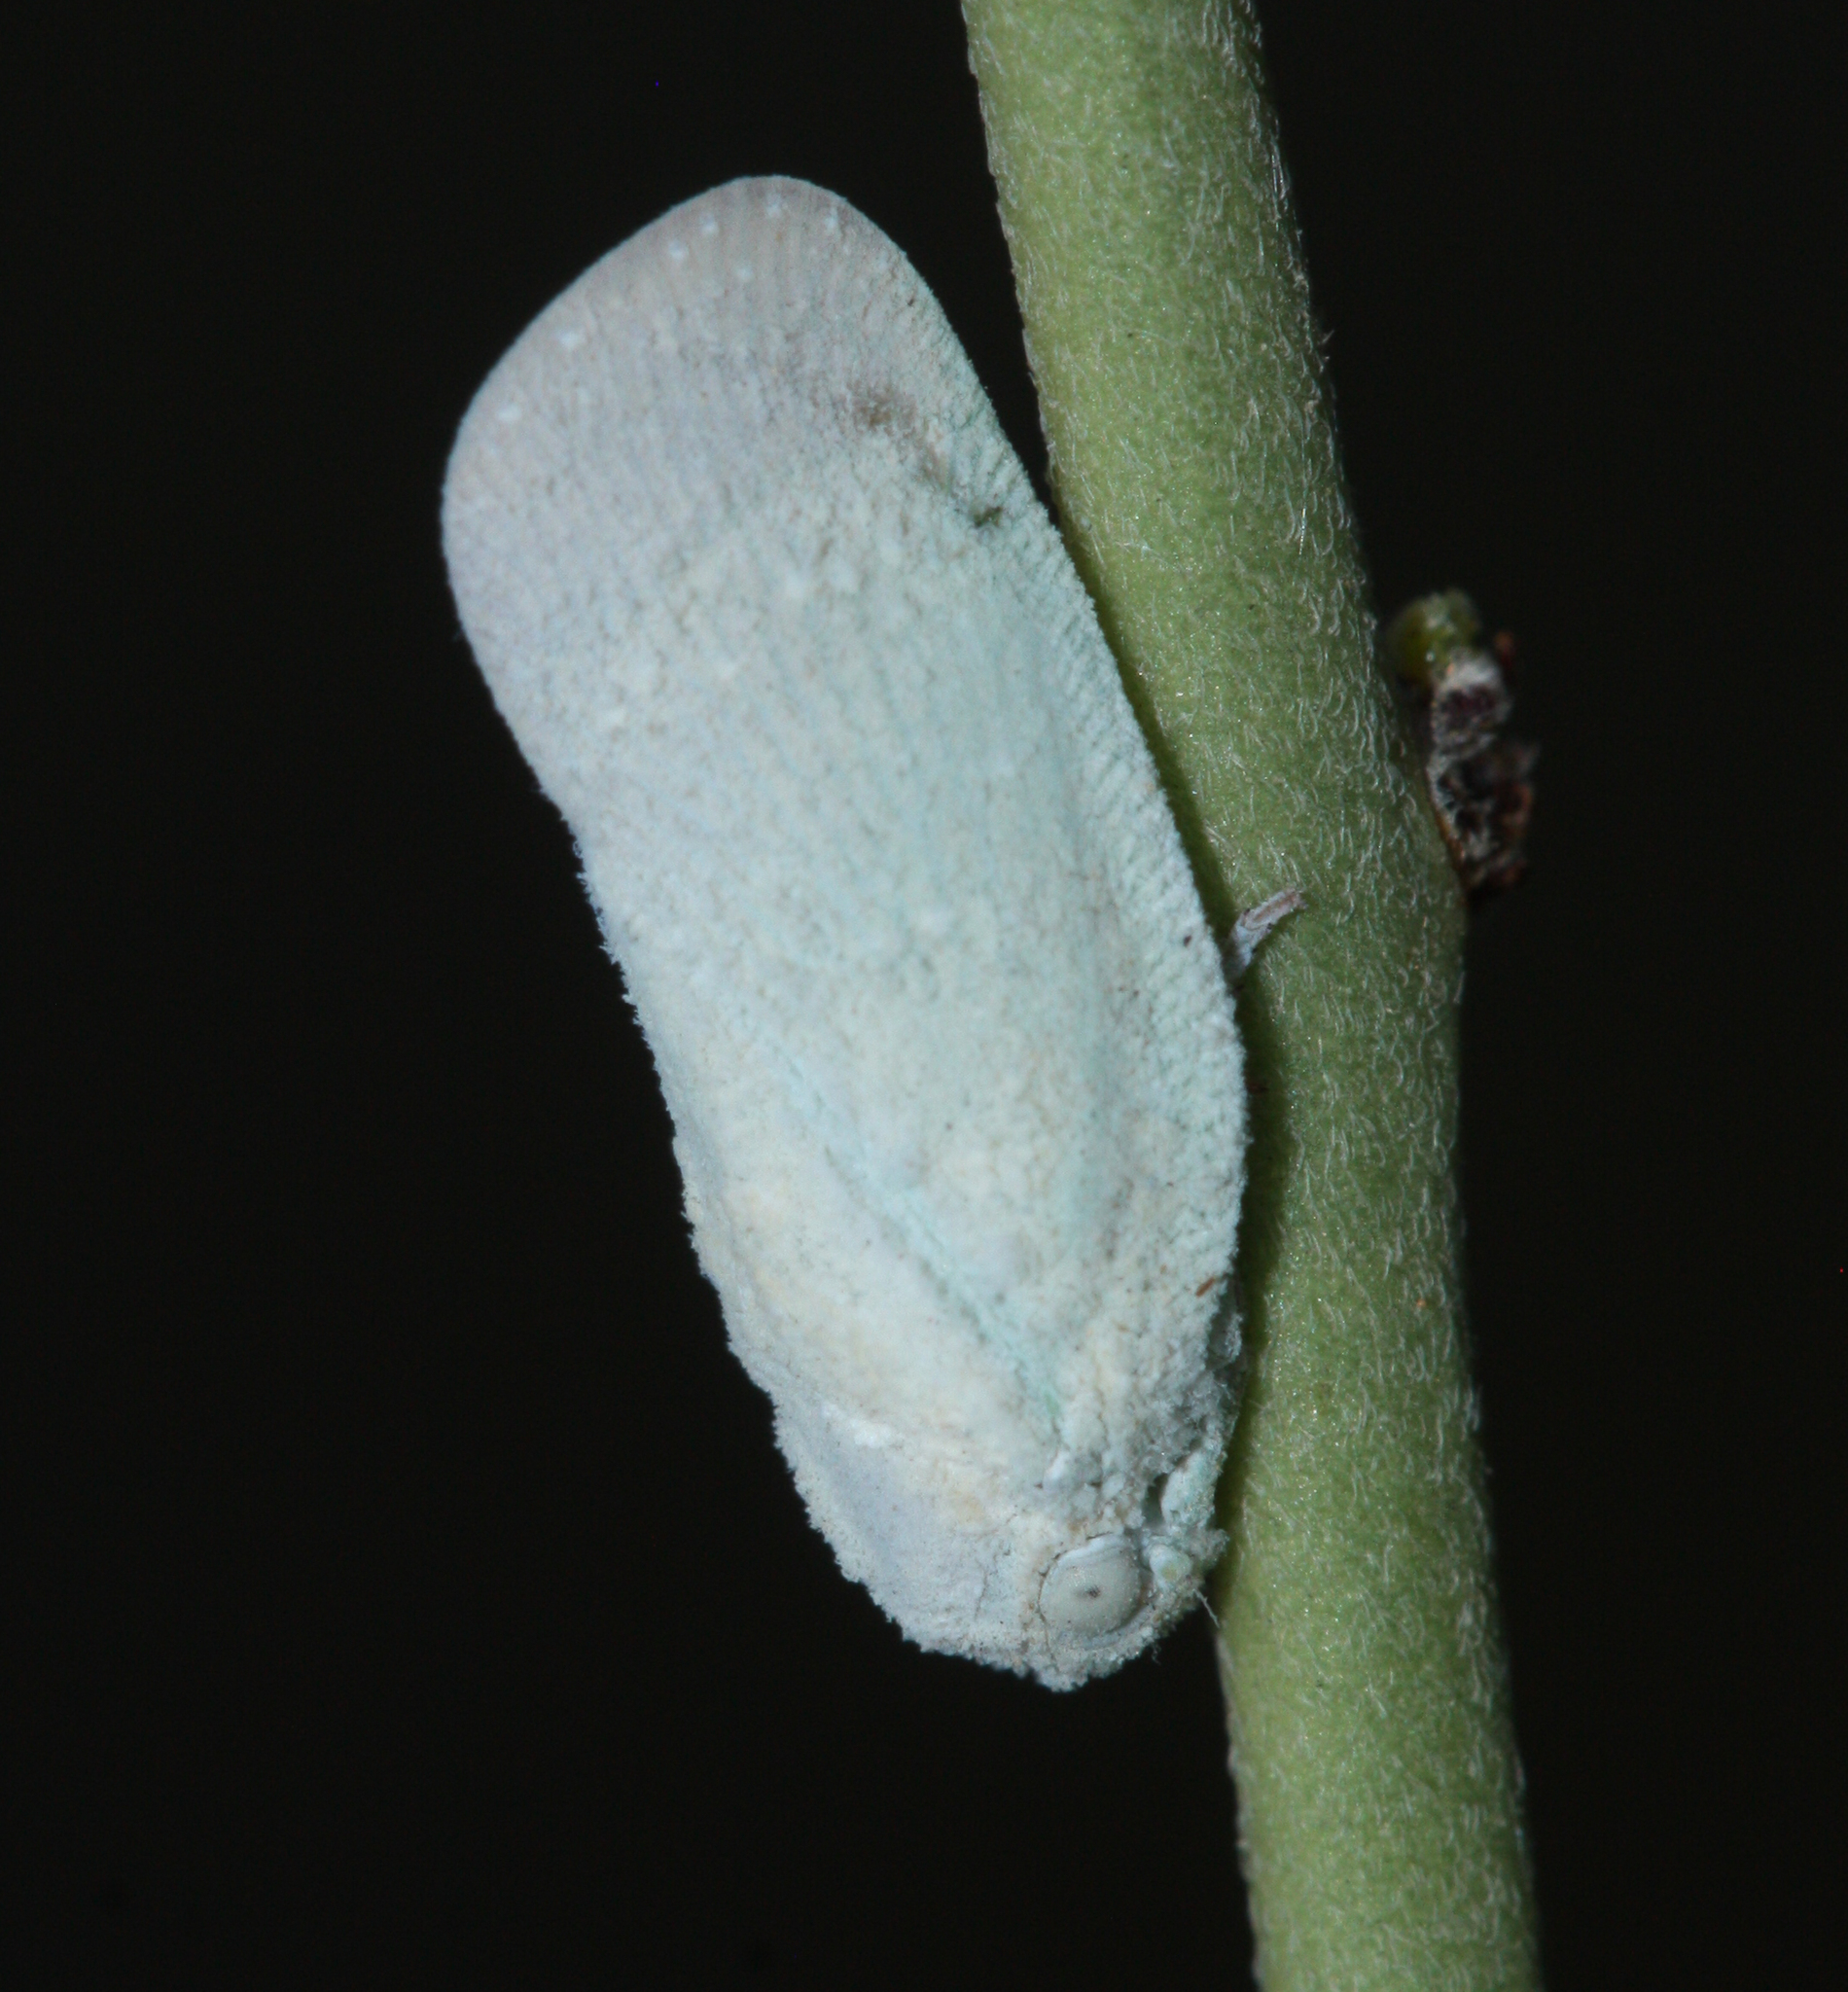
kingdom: Animalia
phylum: Arthropoda
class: Insecta
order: Hemiptera
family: Flatidae
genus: Flatormenis
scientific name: Flatormenis saucia
